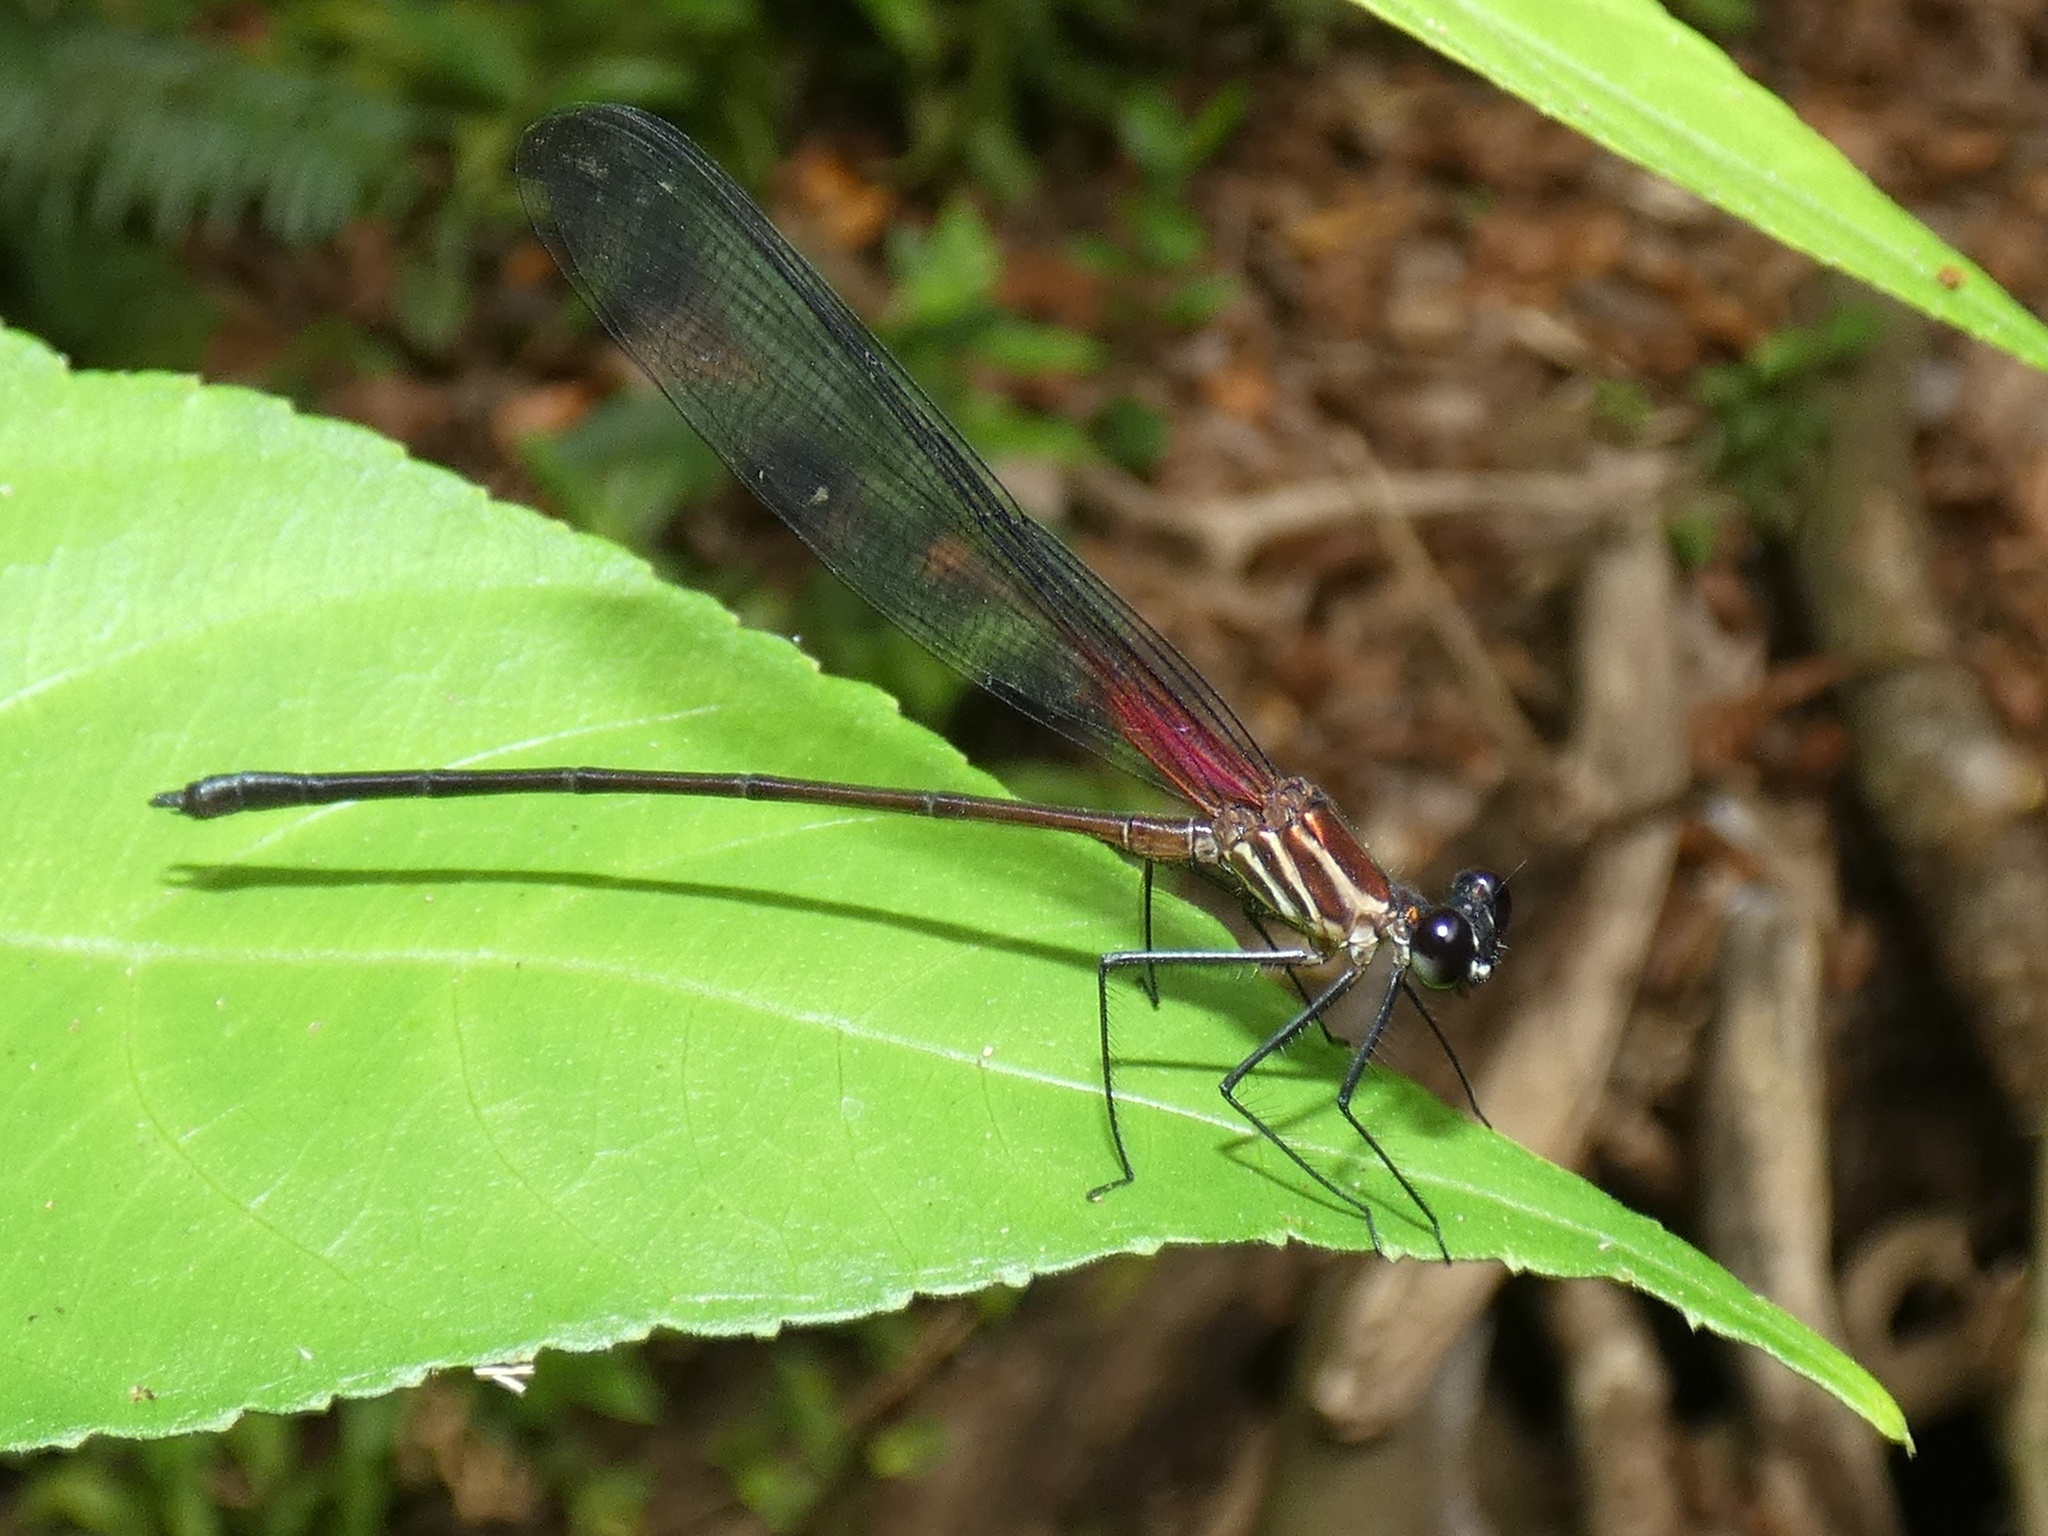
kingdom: Animalia
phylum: Arthropoda
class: Insecta
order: Odonata
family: Calopterygidae
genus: Hetaerina
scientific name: Hetaerina fuscoguttata
